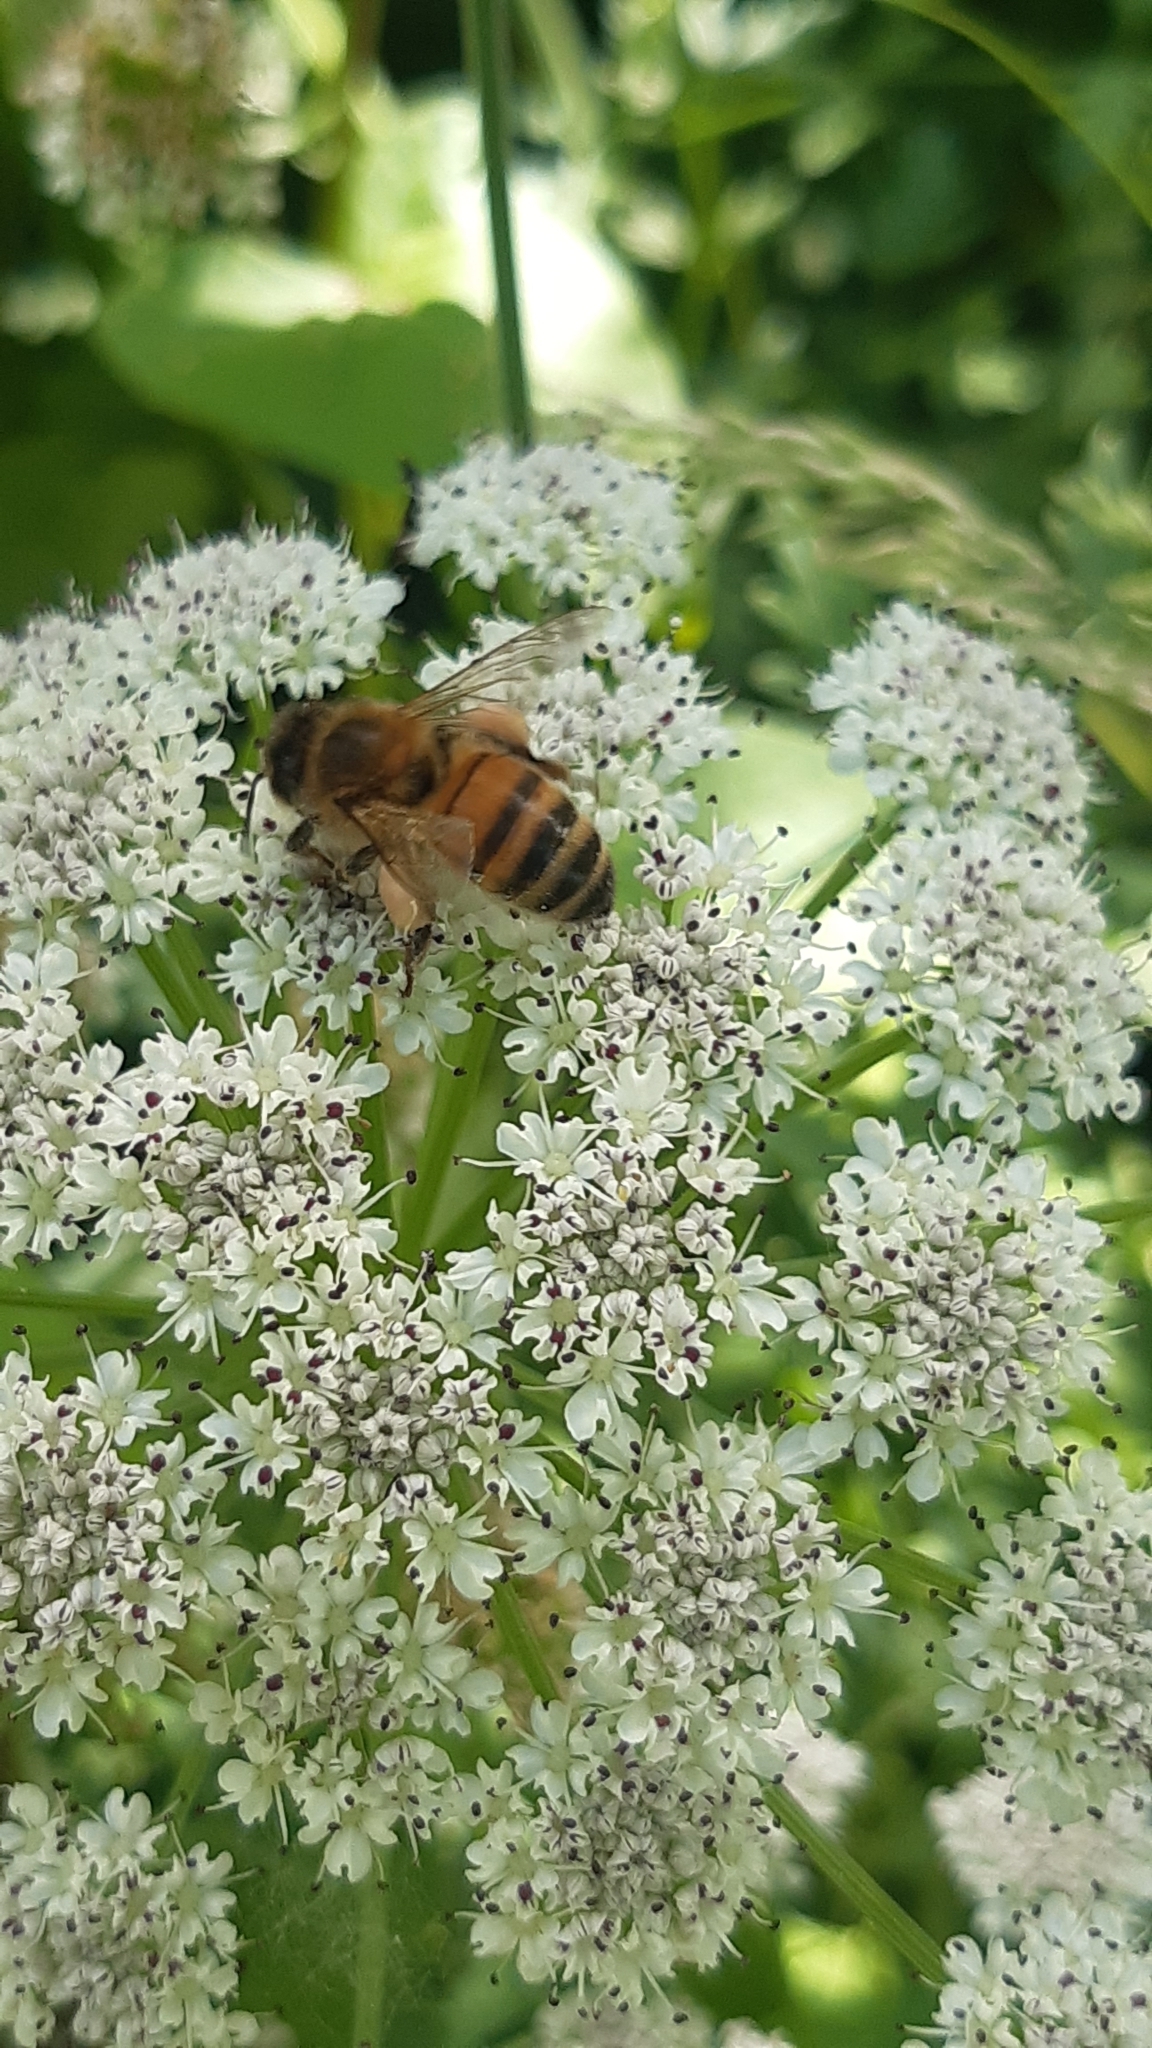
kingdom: Animalia
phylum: Arthropoda
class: Insecta
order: Hymenoptera
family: Apidae
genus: Apis
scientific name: Apis mellifera
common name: Honey bee
